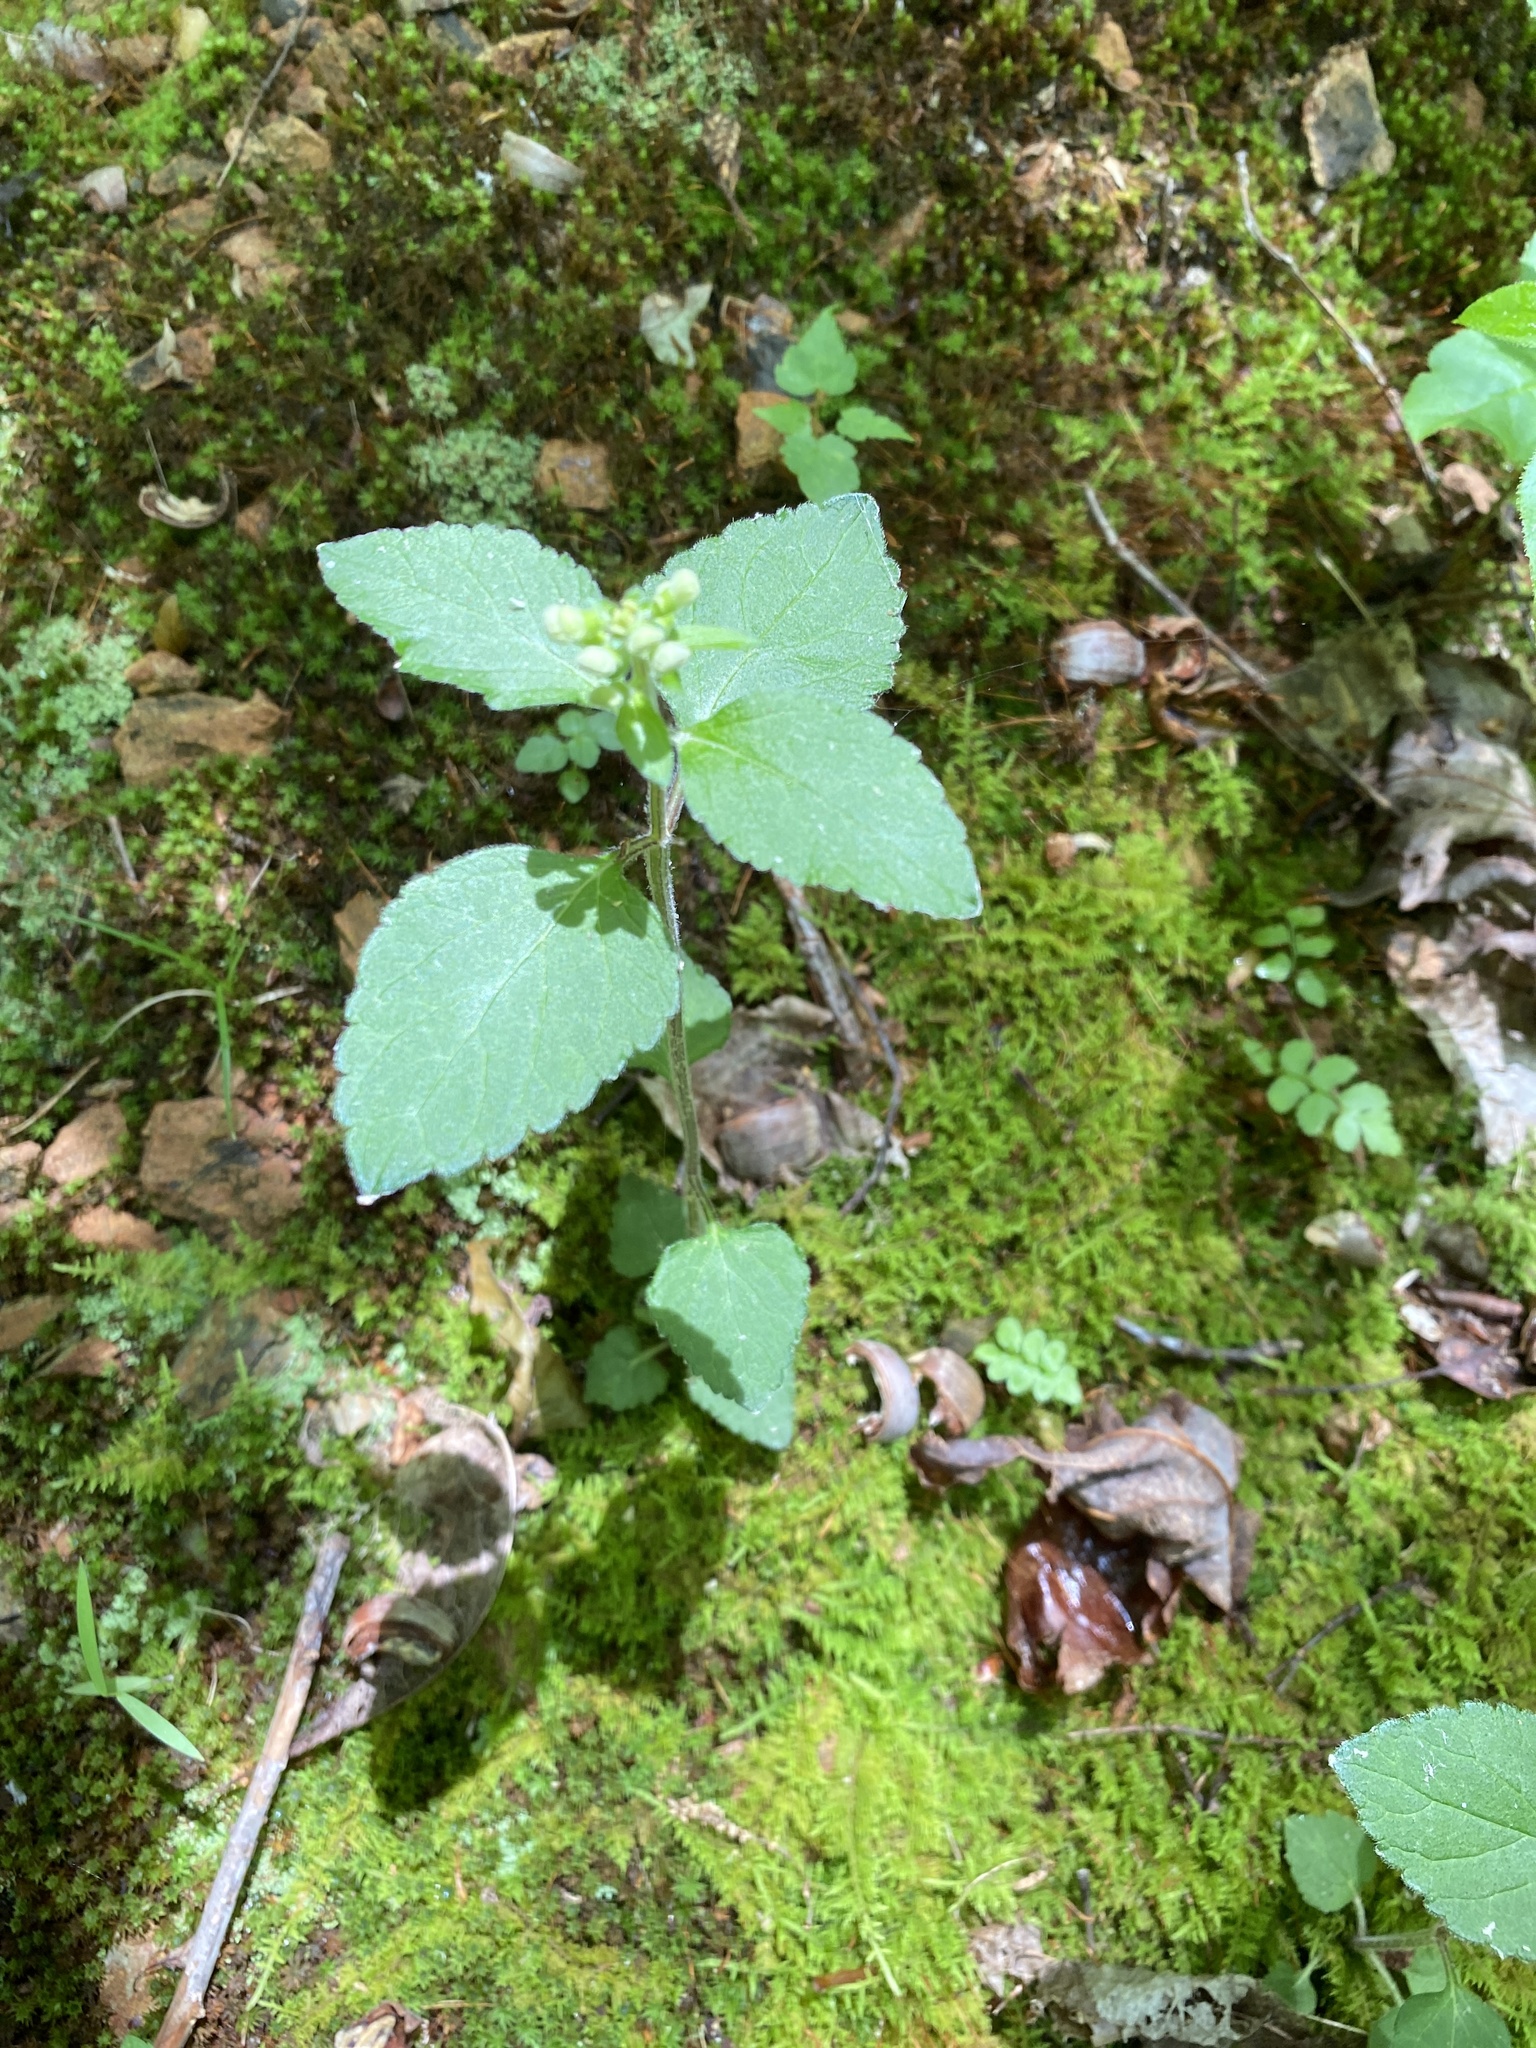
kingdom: Plantae
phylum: Tracheophyta
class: Magnoliopsida
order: Lamiales
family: Lamiaceae
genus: Scutellaria
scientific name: Scutellaria elliptica
